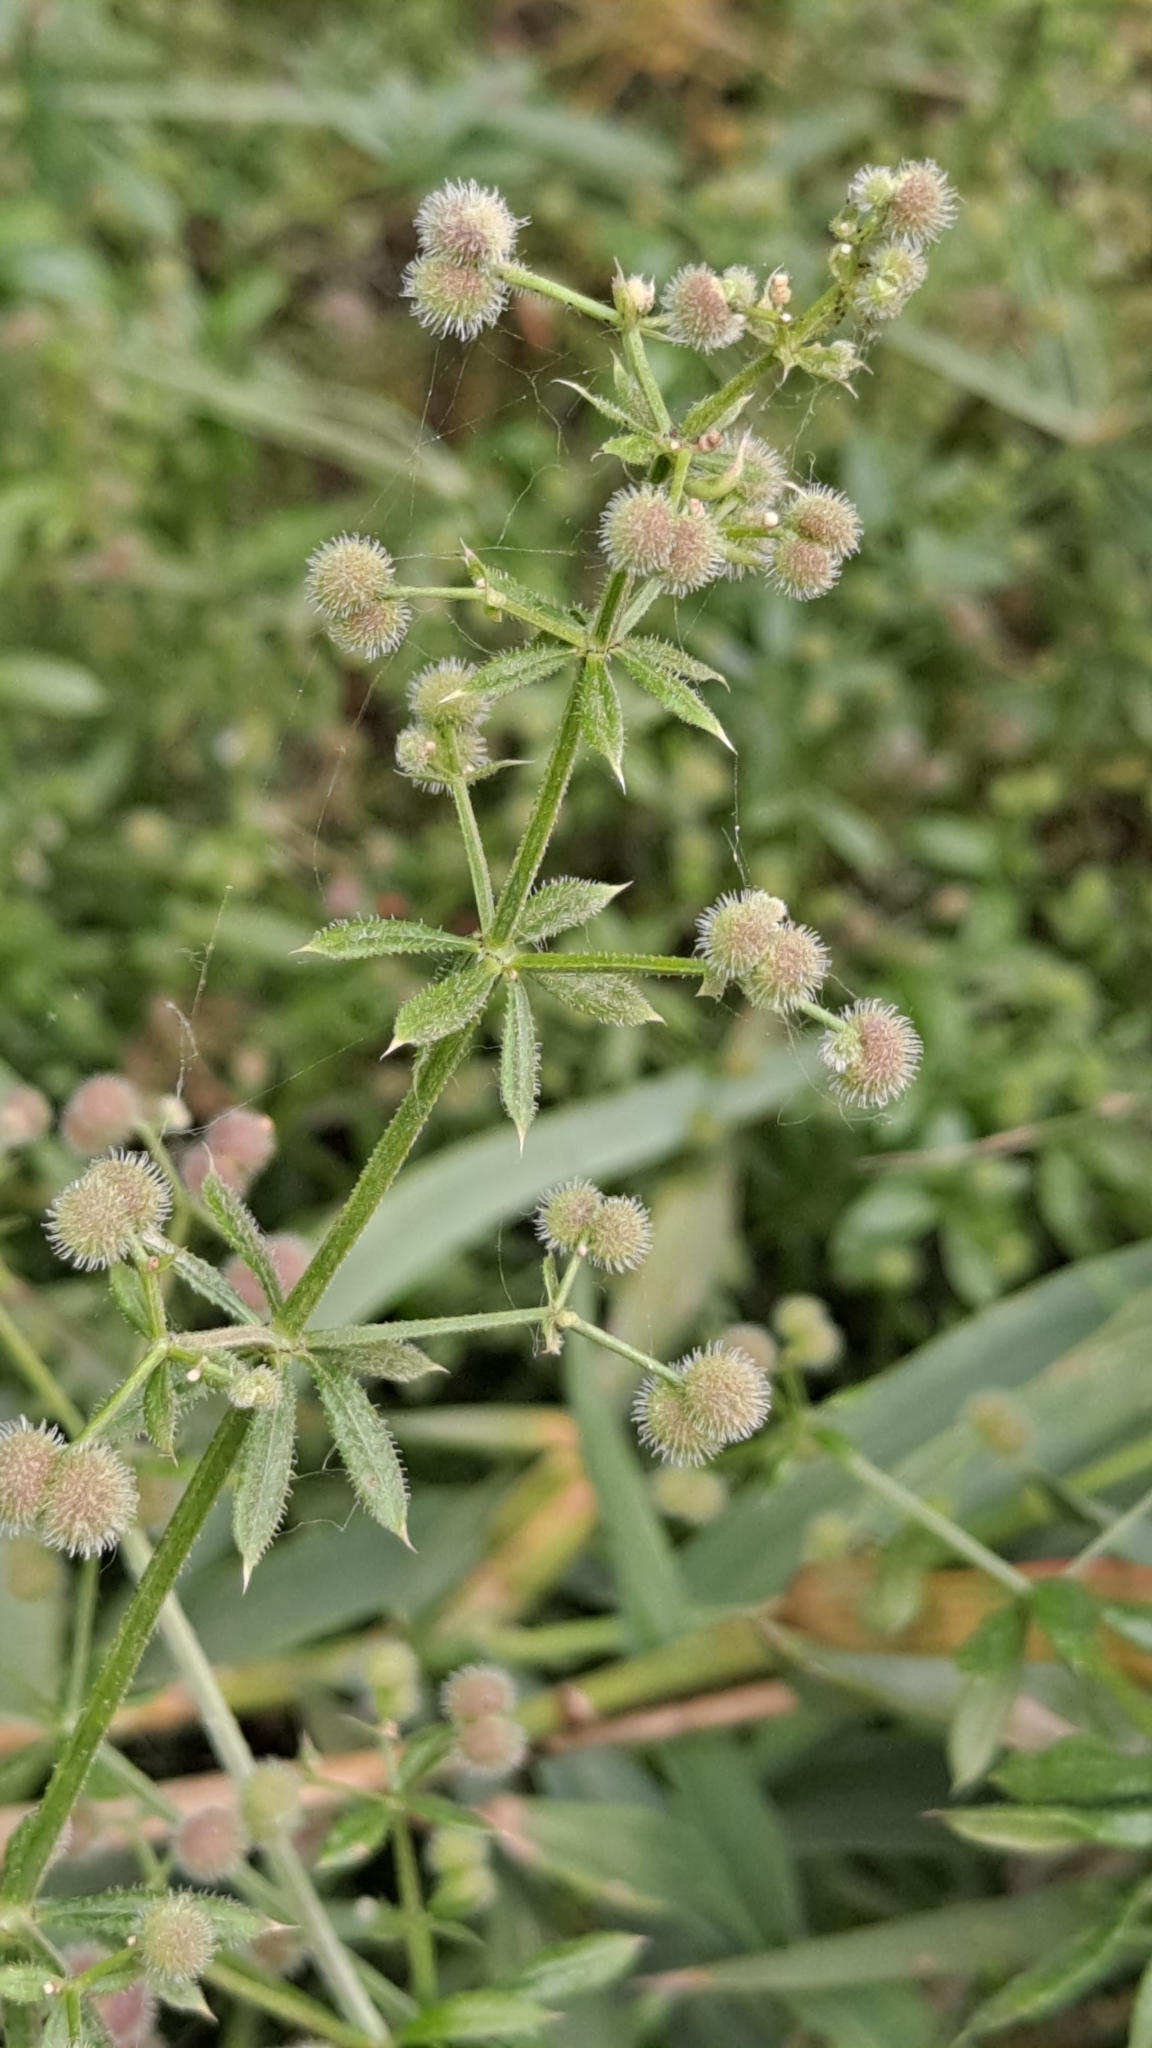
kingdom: Plantae
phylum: Tracheophyta
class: Magnoliopsida
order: Gentianales
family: Rubiaceae
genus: Galium
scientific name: Galium aparine
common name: Cleavers
